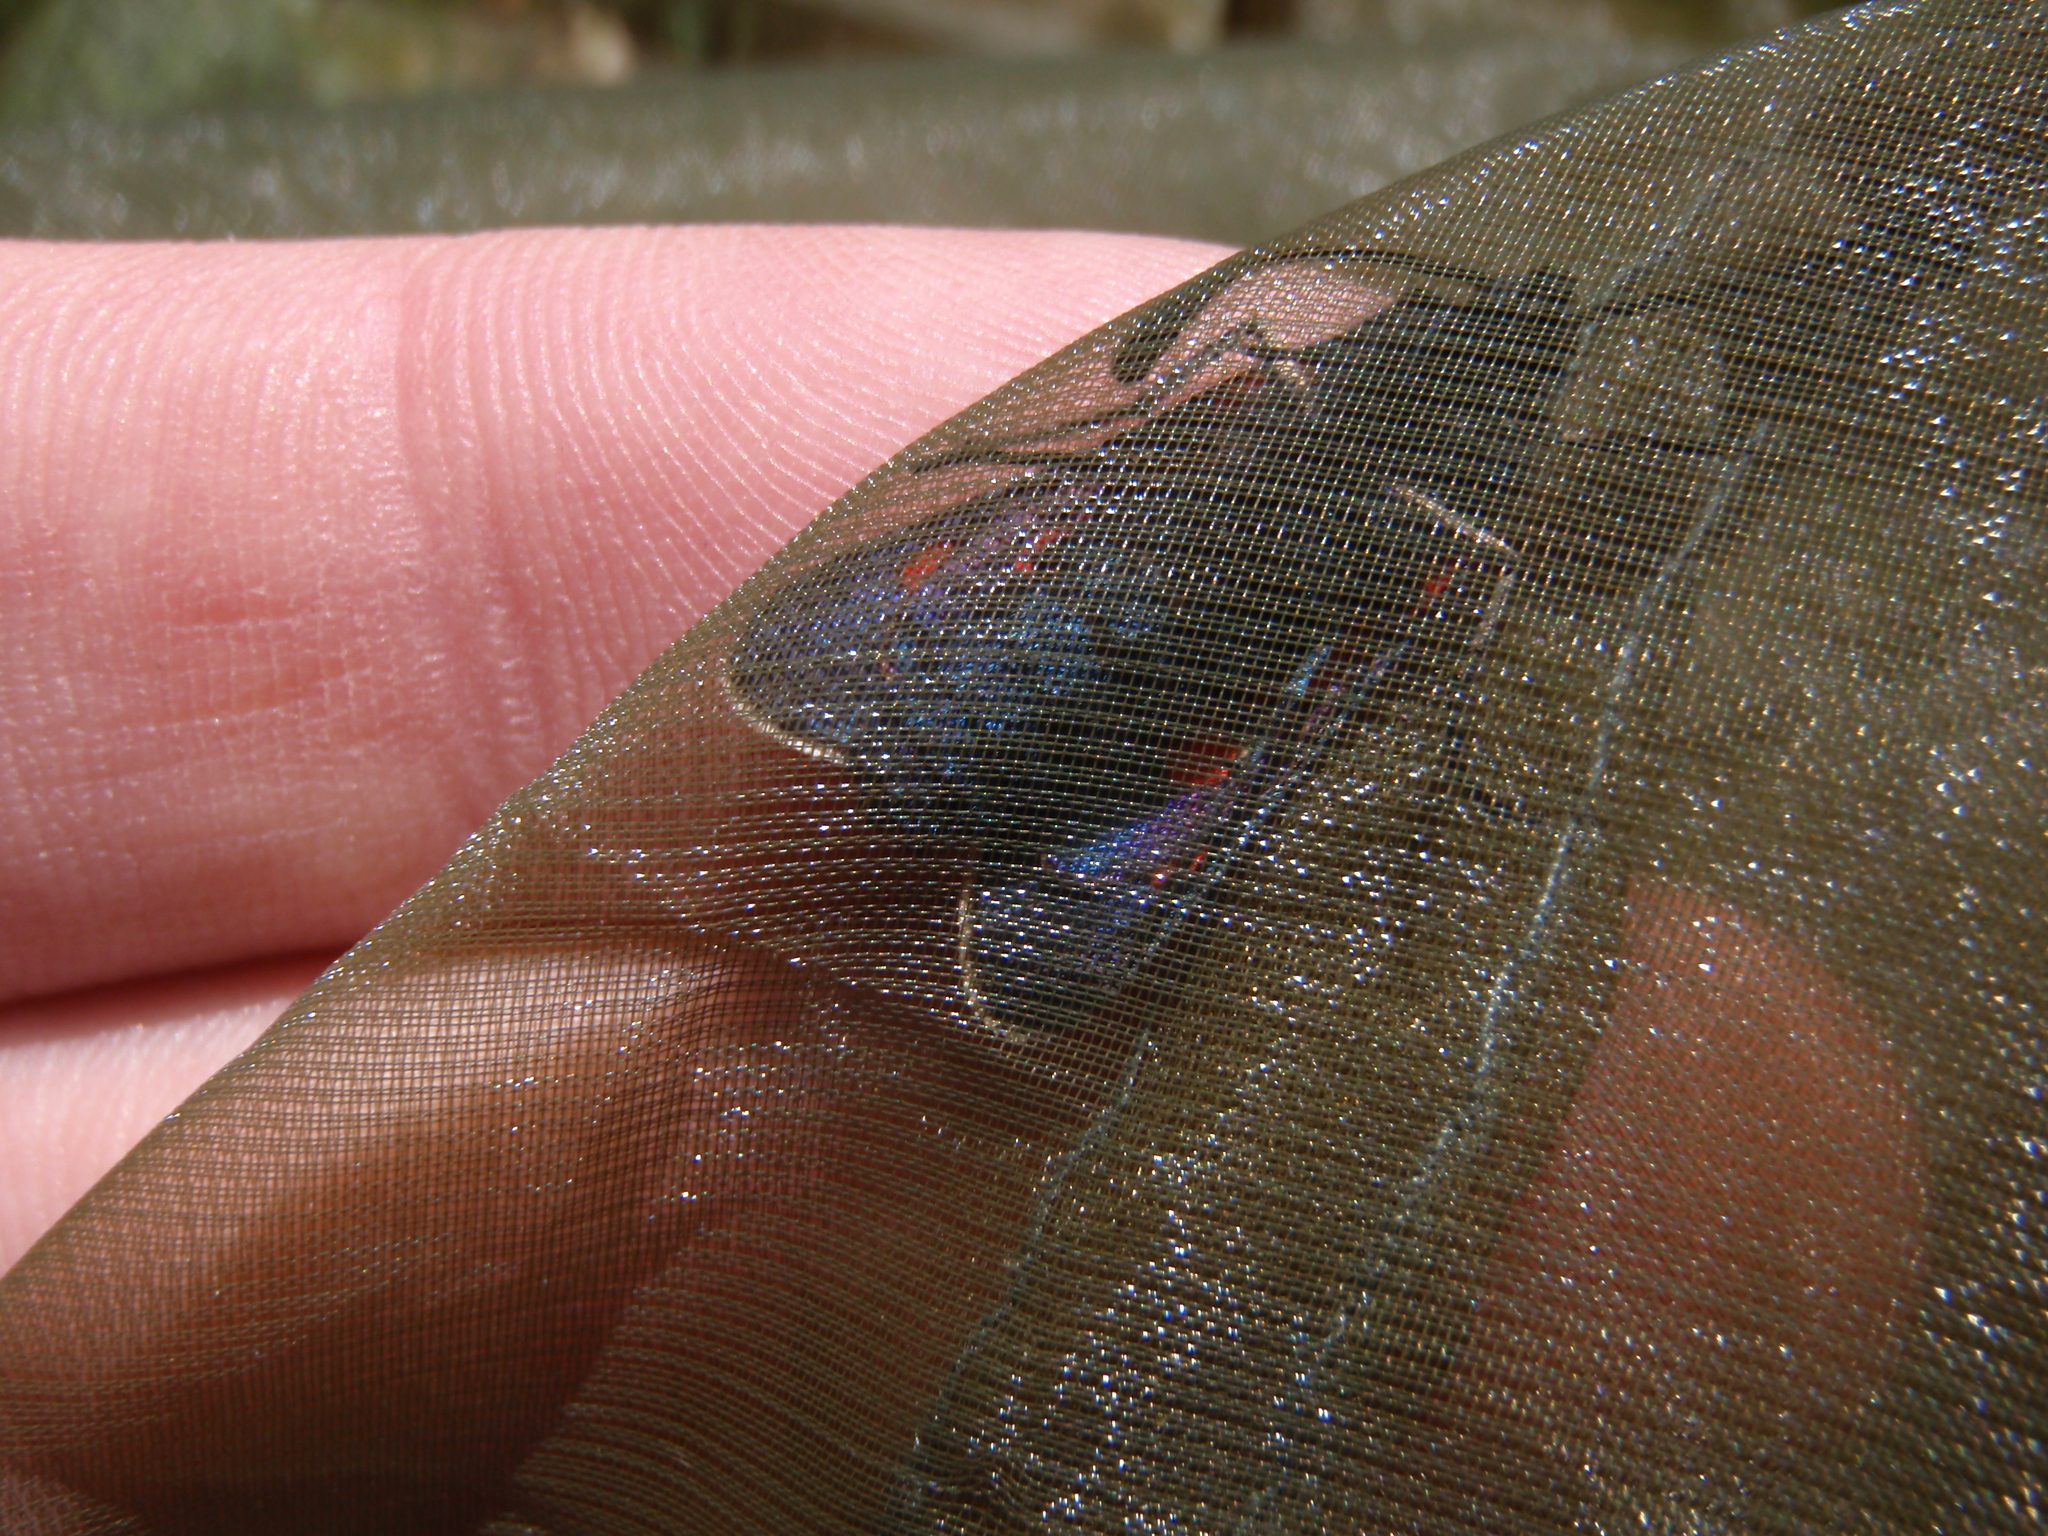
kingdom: Animalia
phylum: Arthropoda
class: Insecta
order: Lepidoptera
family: Zygaenidae
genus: Zygaena
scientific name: Zygaena lavandulae
